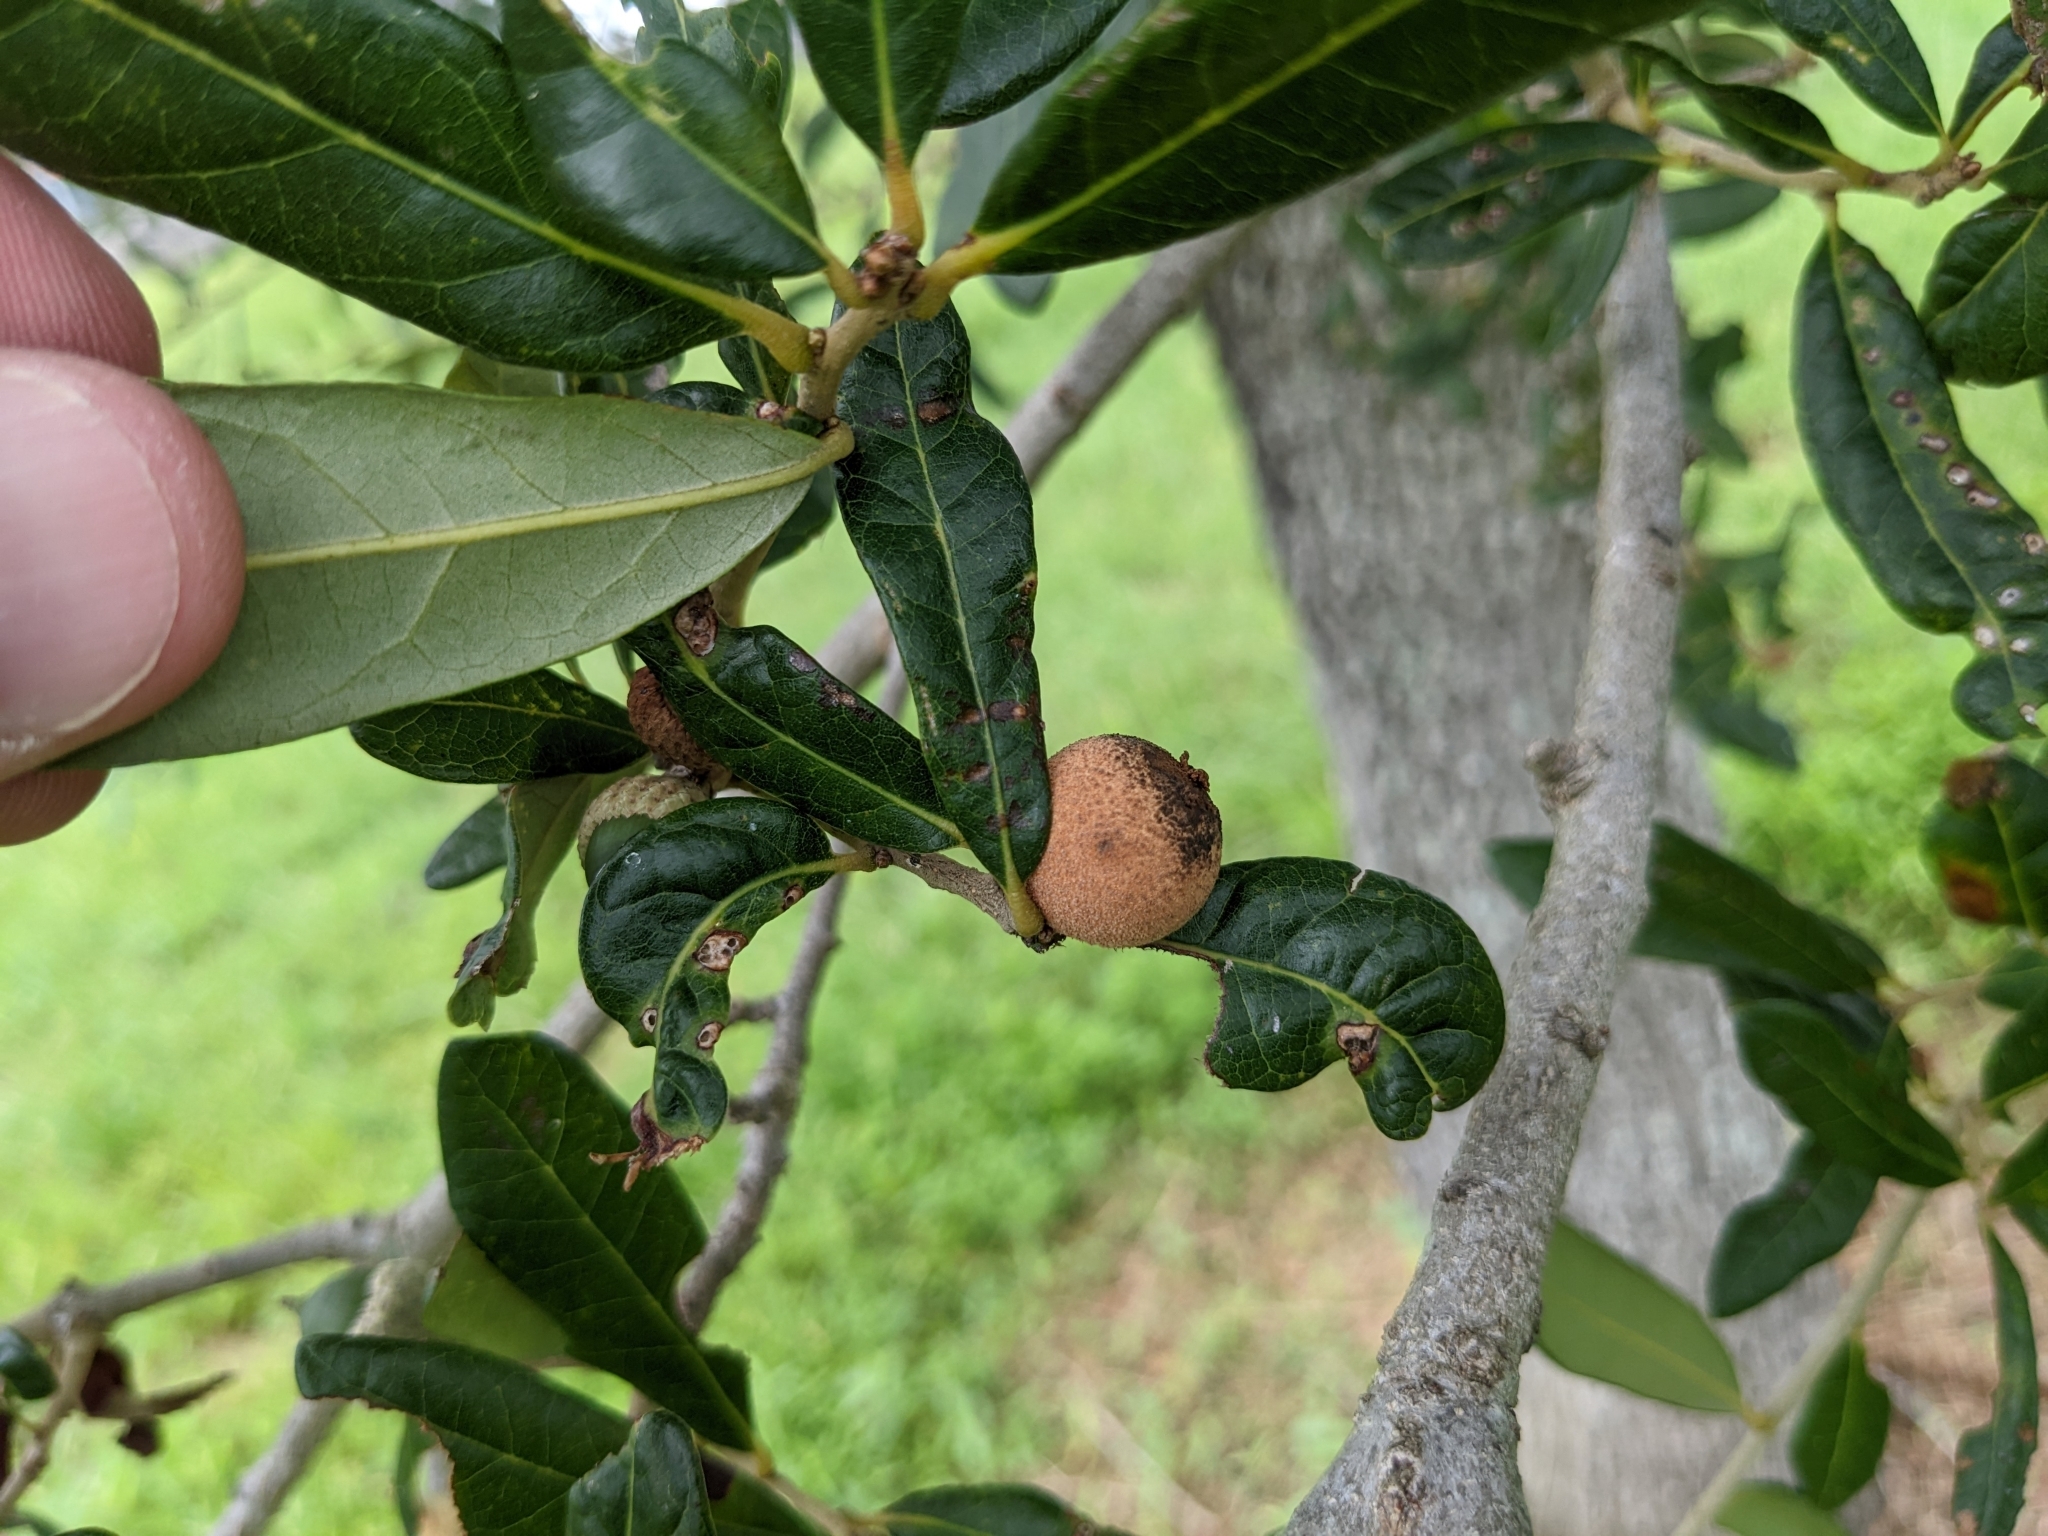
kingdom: Animalia
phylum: Arthropoda
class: Insecta
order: Hymenoptera
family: Cynipidae
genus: Disholcaspis
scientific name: Disholcaspis
